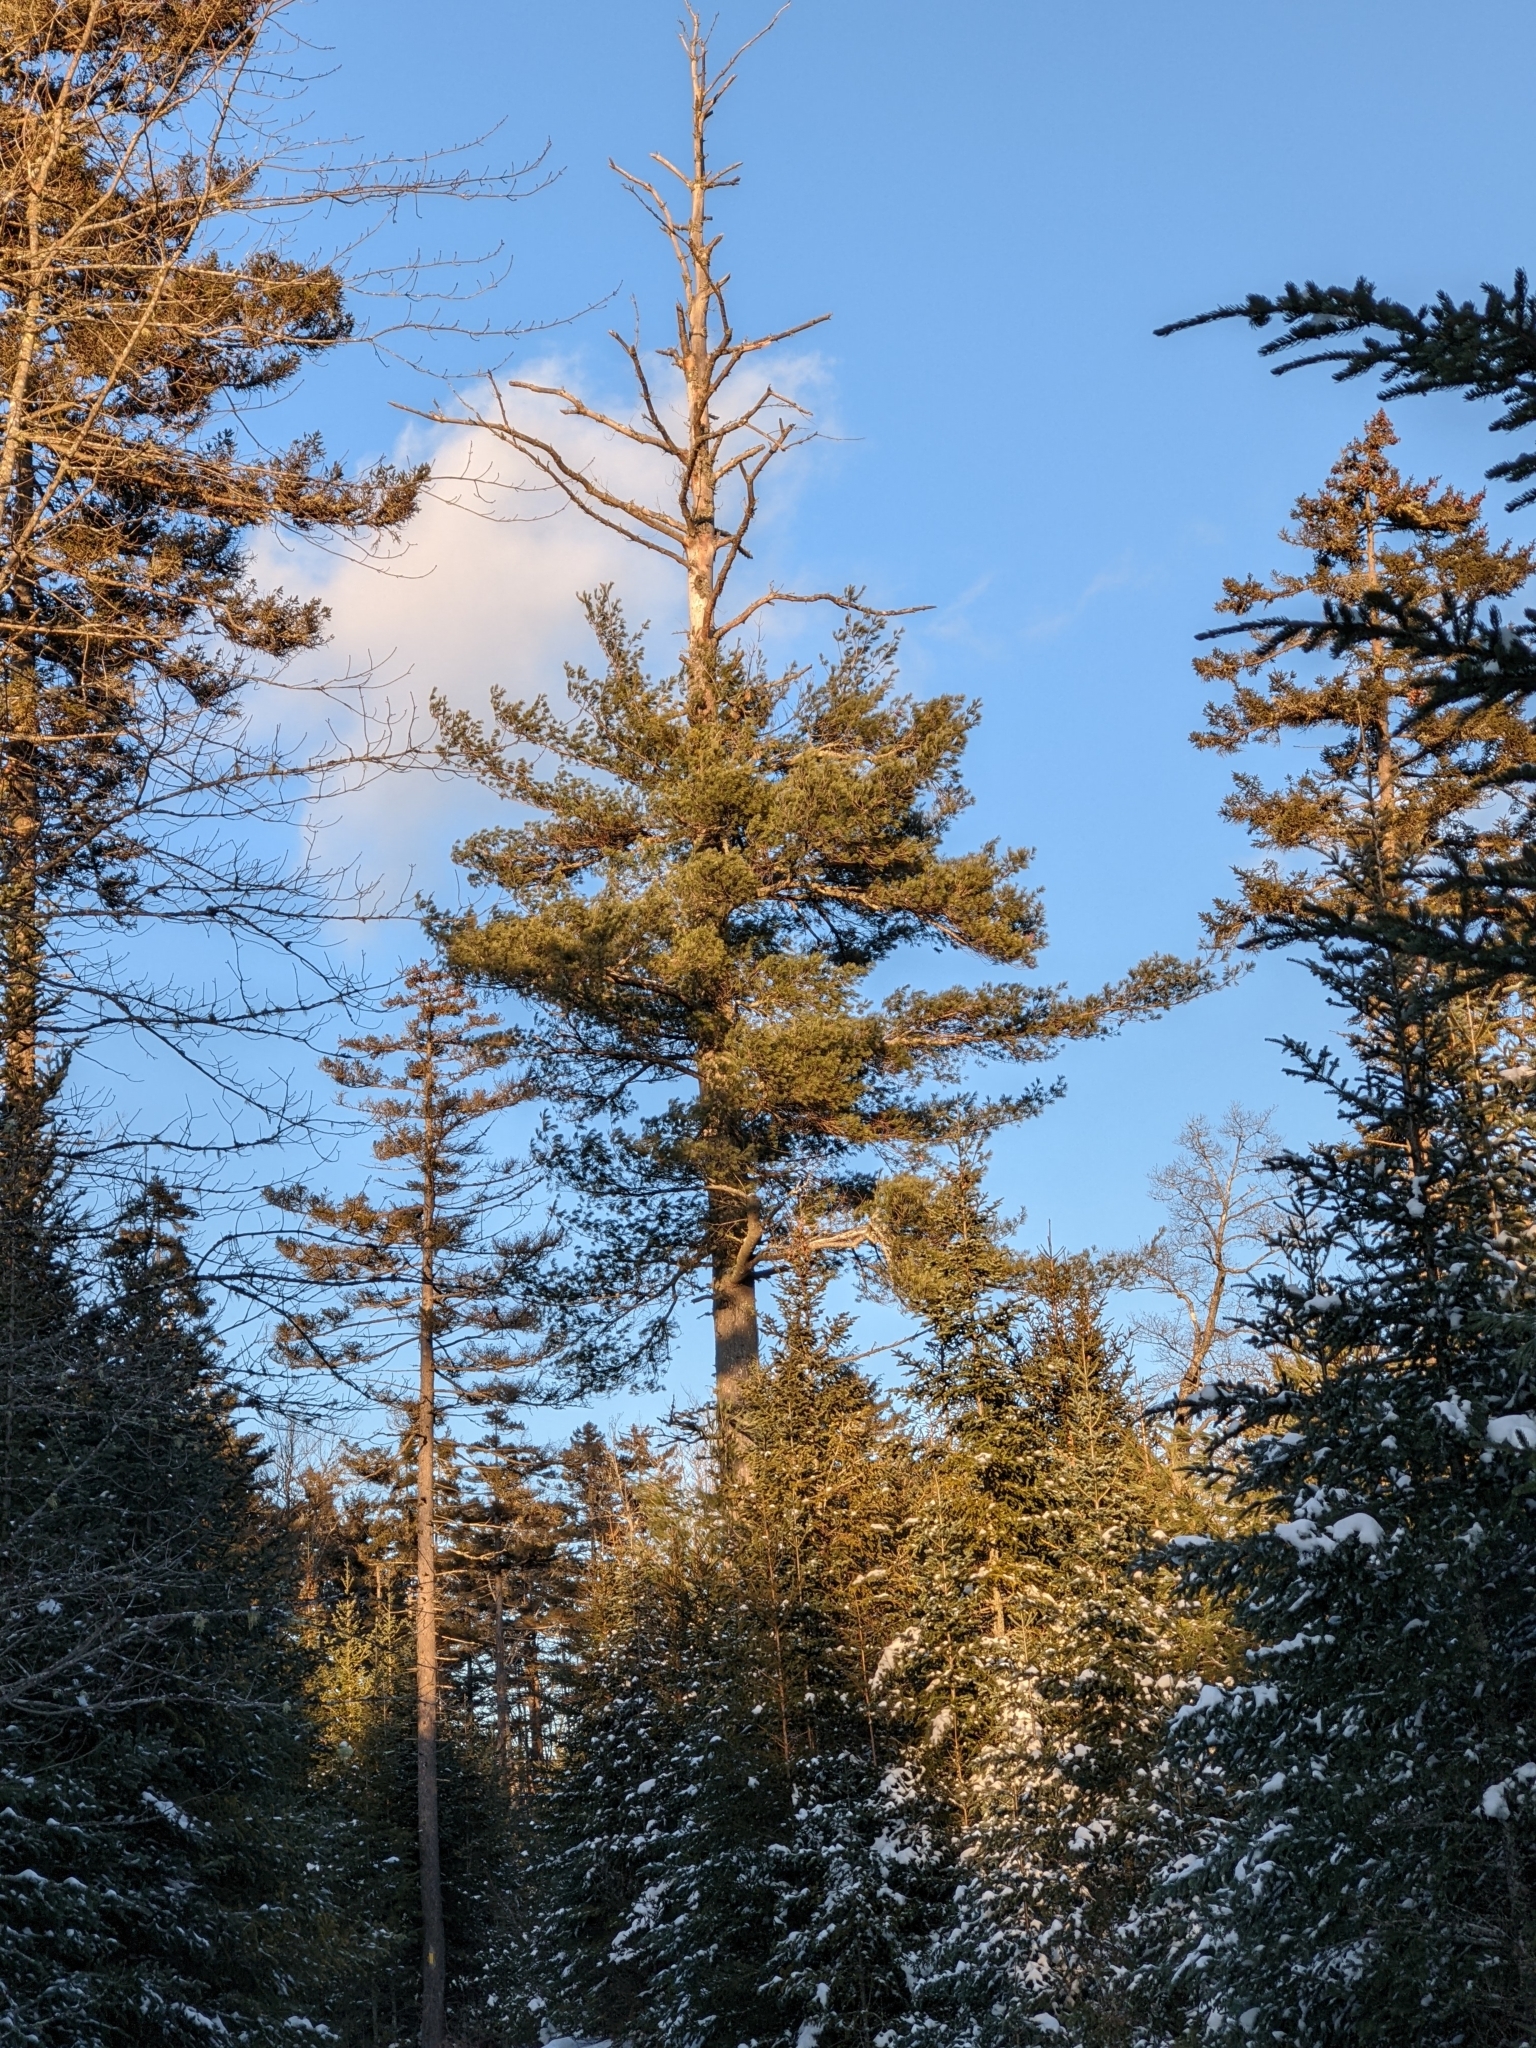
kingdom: Plantae
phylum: Tracheophyta
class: Pinopsida
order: Pinales
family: Pinaceae
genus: Pinus
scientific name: Pinus strobus
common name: Weymouth pine
